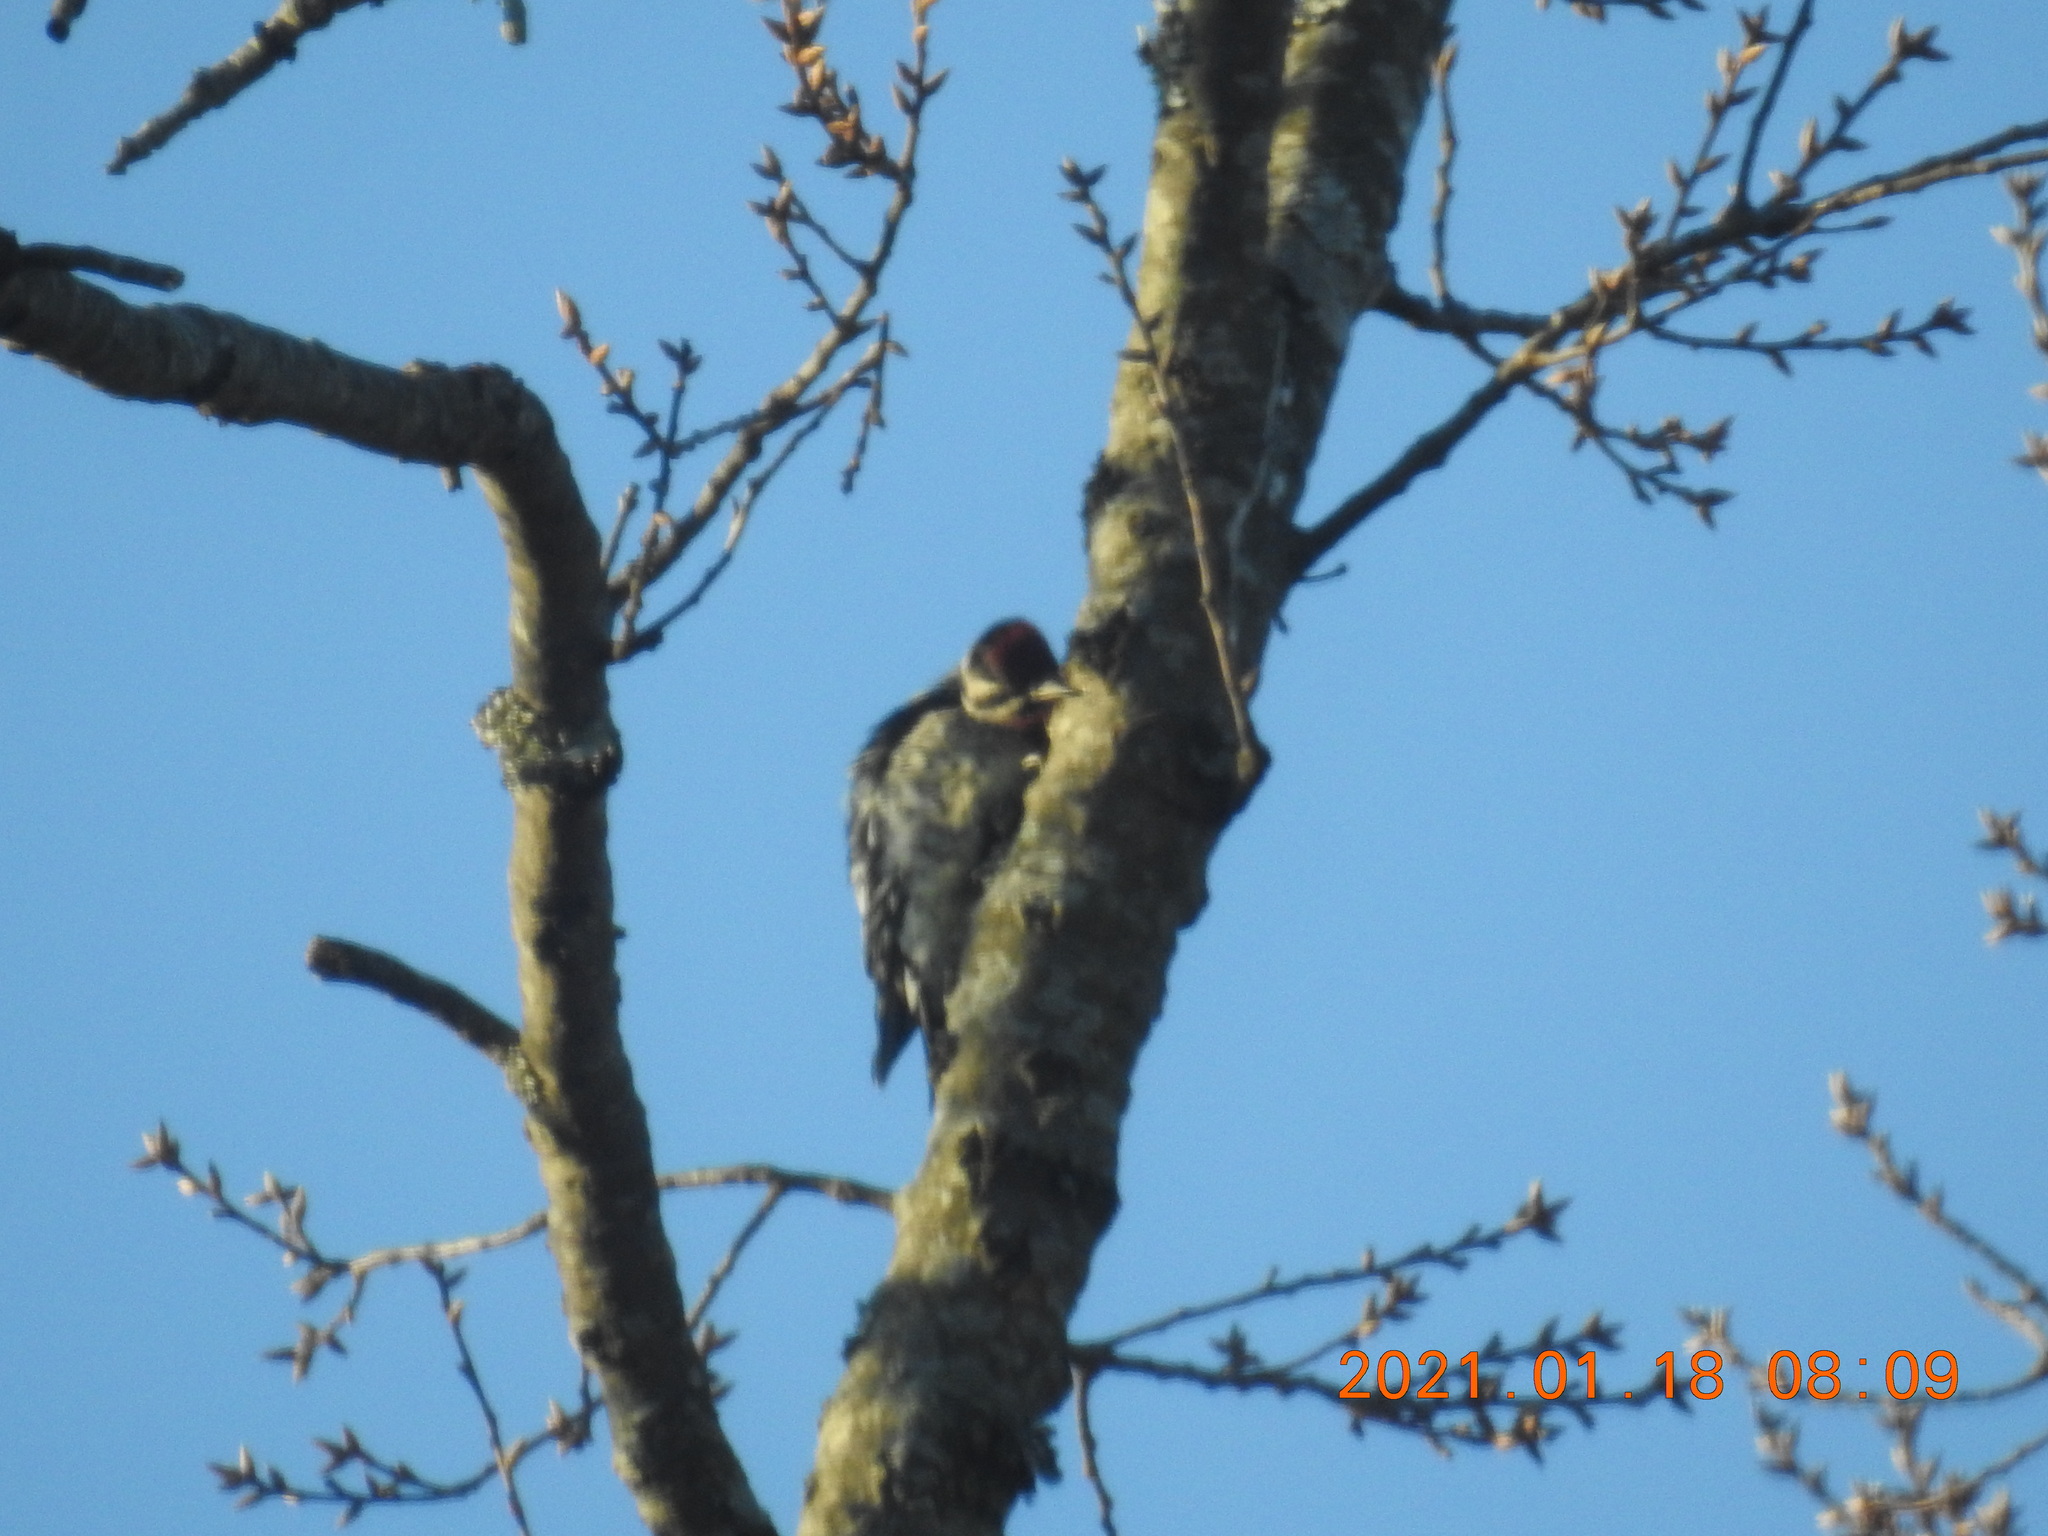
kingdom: Animalia
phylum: Chordata
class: Aves
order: Piciformes
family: Picidae
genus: Sphyrapicus
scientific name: Sphyrapicus varius
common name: Yellow-bellied sapsucker
